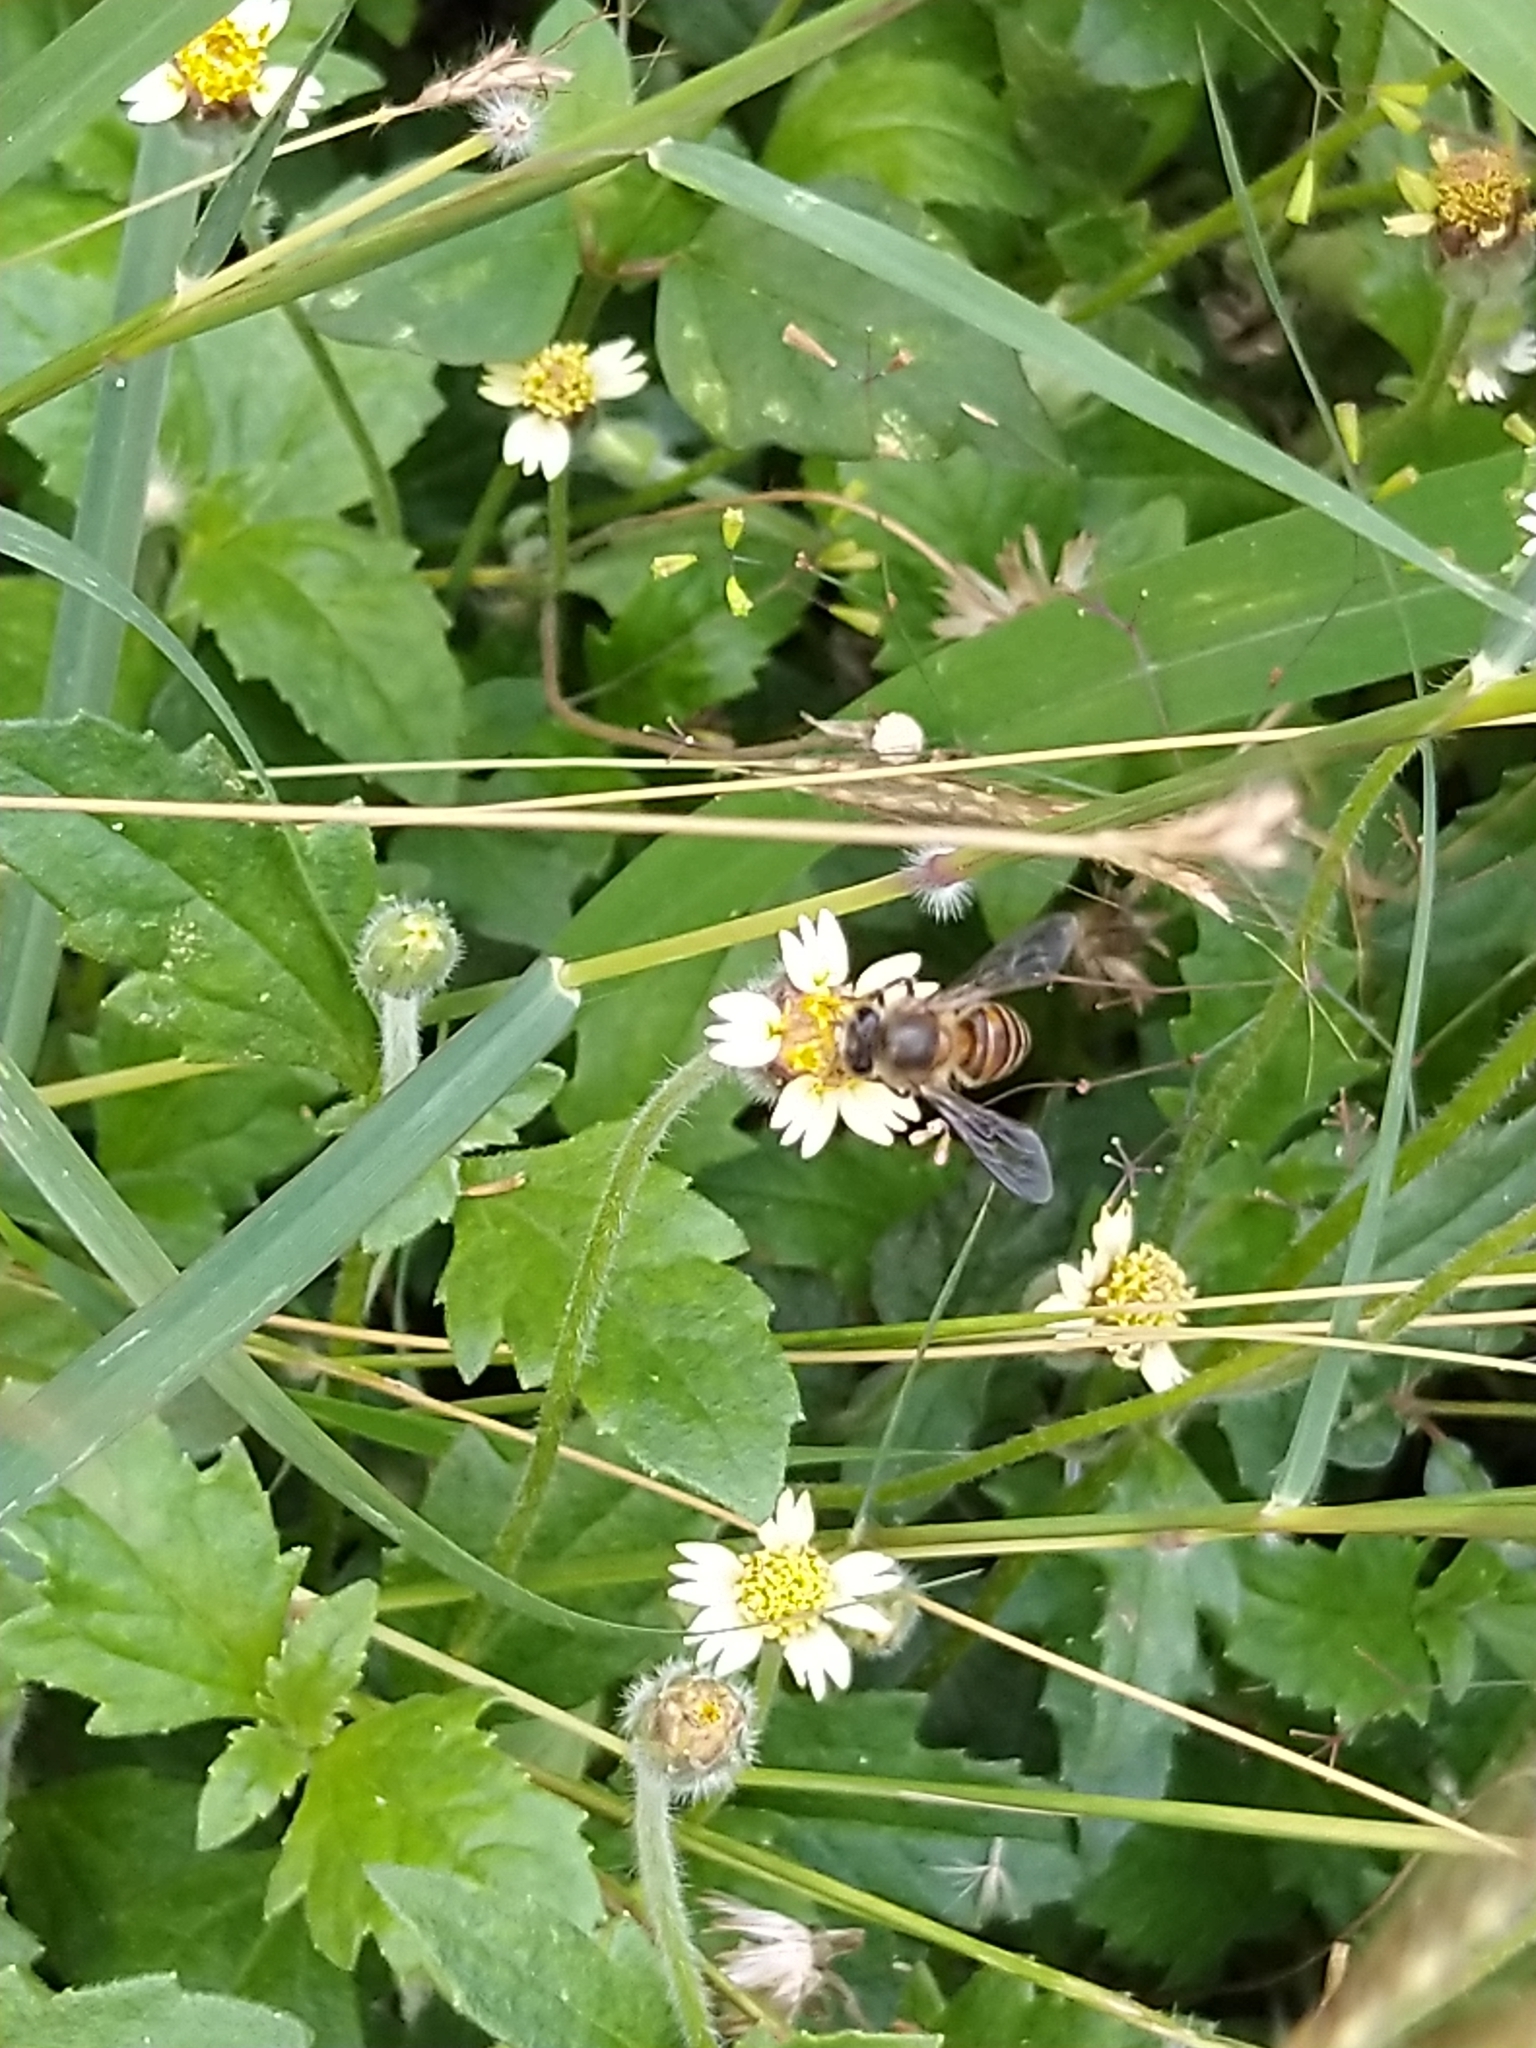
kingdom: Animalia
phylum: Arthropoda
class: Insecta
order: Hymenoptera
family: Apidae
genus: Apis
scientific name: Apis cerana
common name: Honey bee
